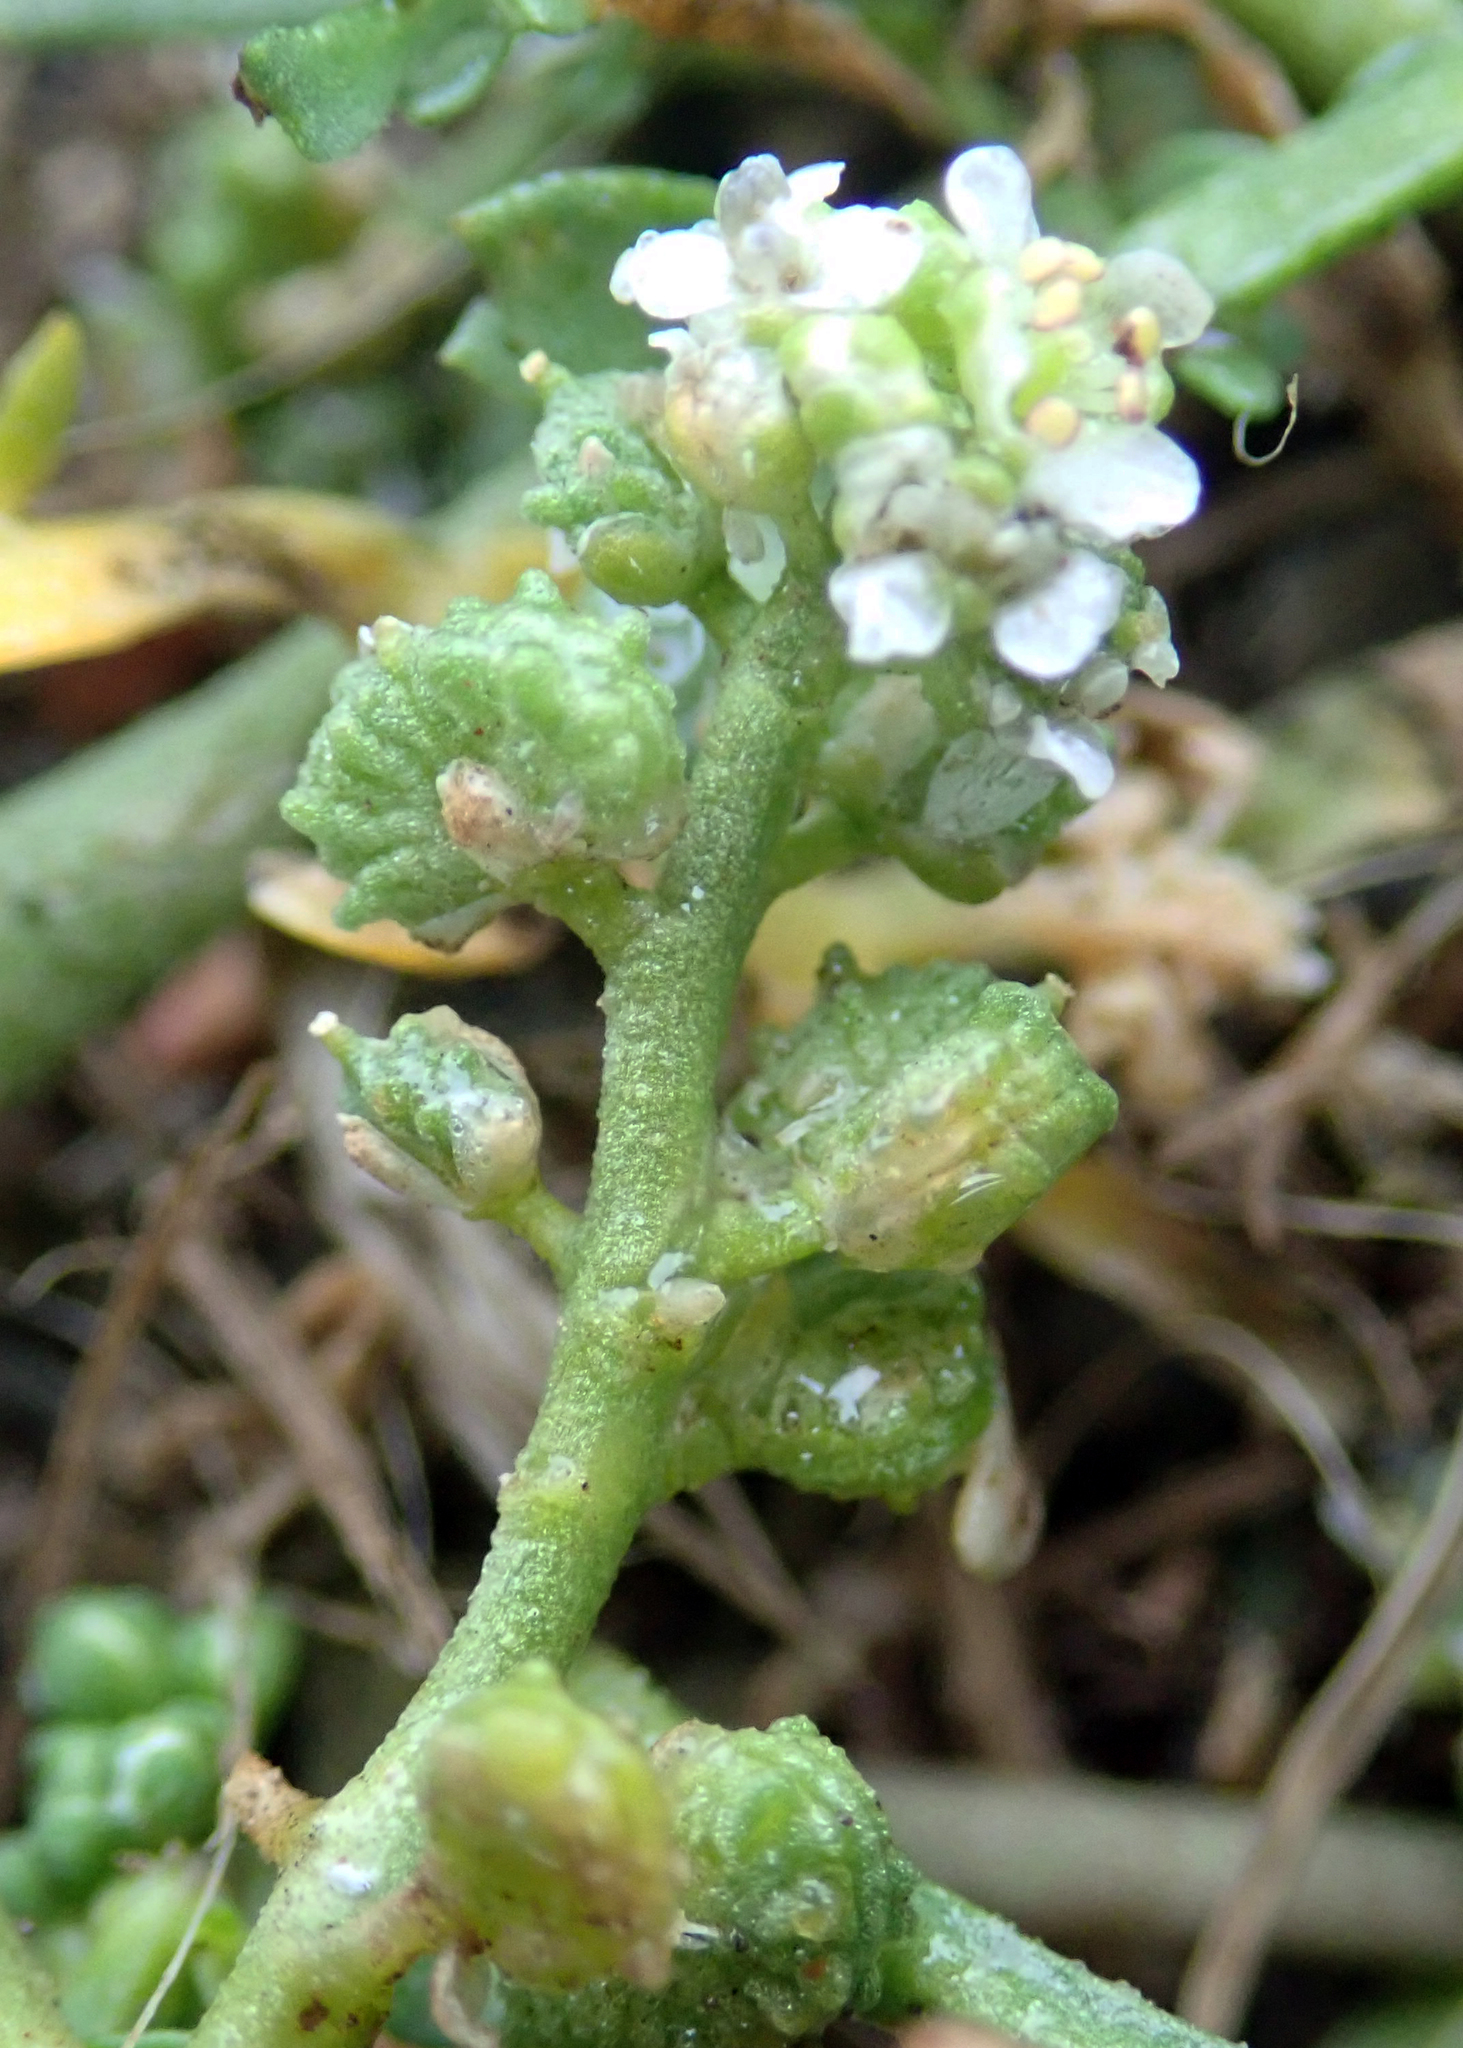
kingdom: Plantae
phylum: Tracheophyta
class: Magnoliopsida
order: Brassicales
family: Brassicaceae
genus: Lepidium
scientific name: Lepidium coronopus
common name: Greater swinecress
